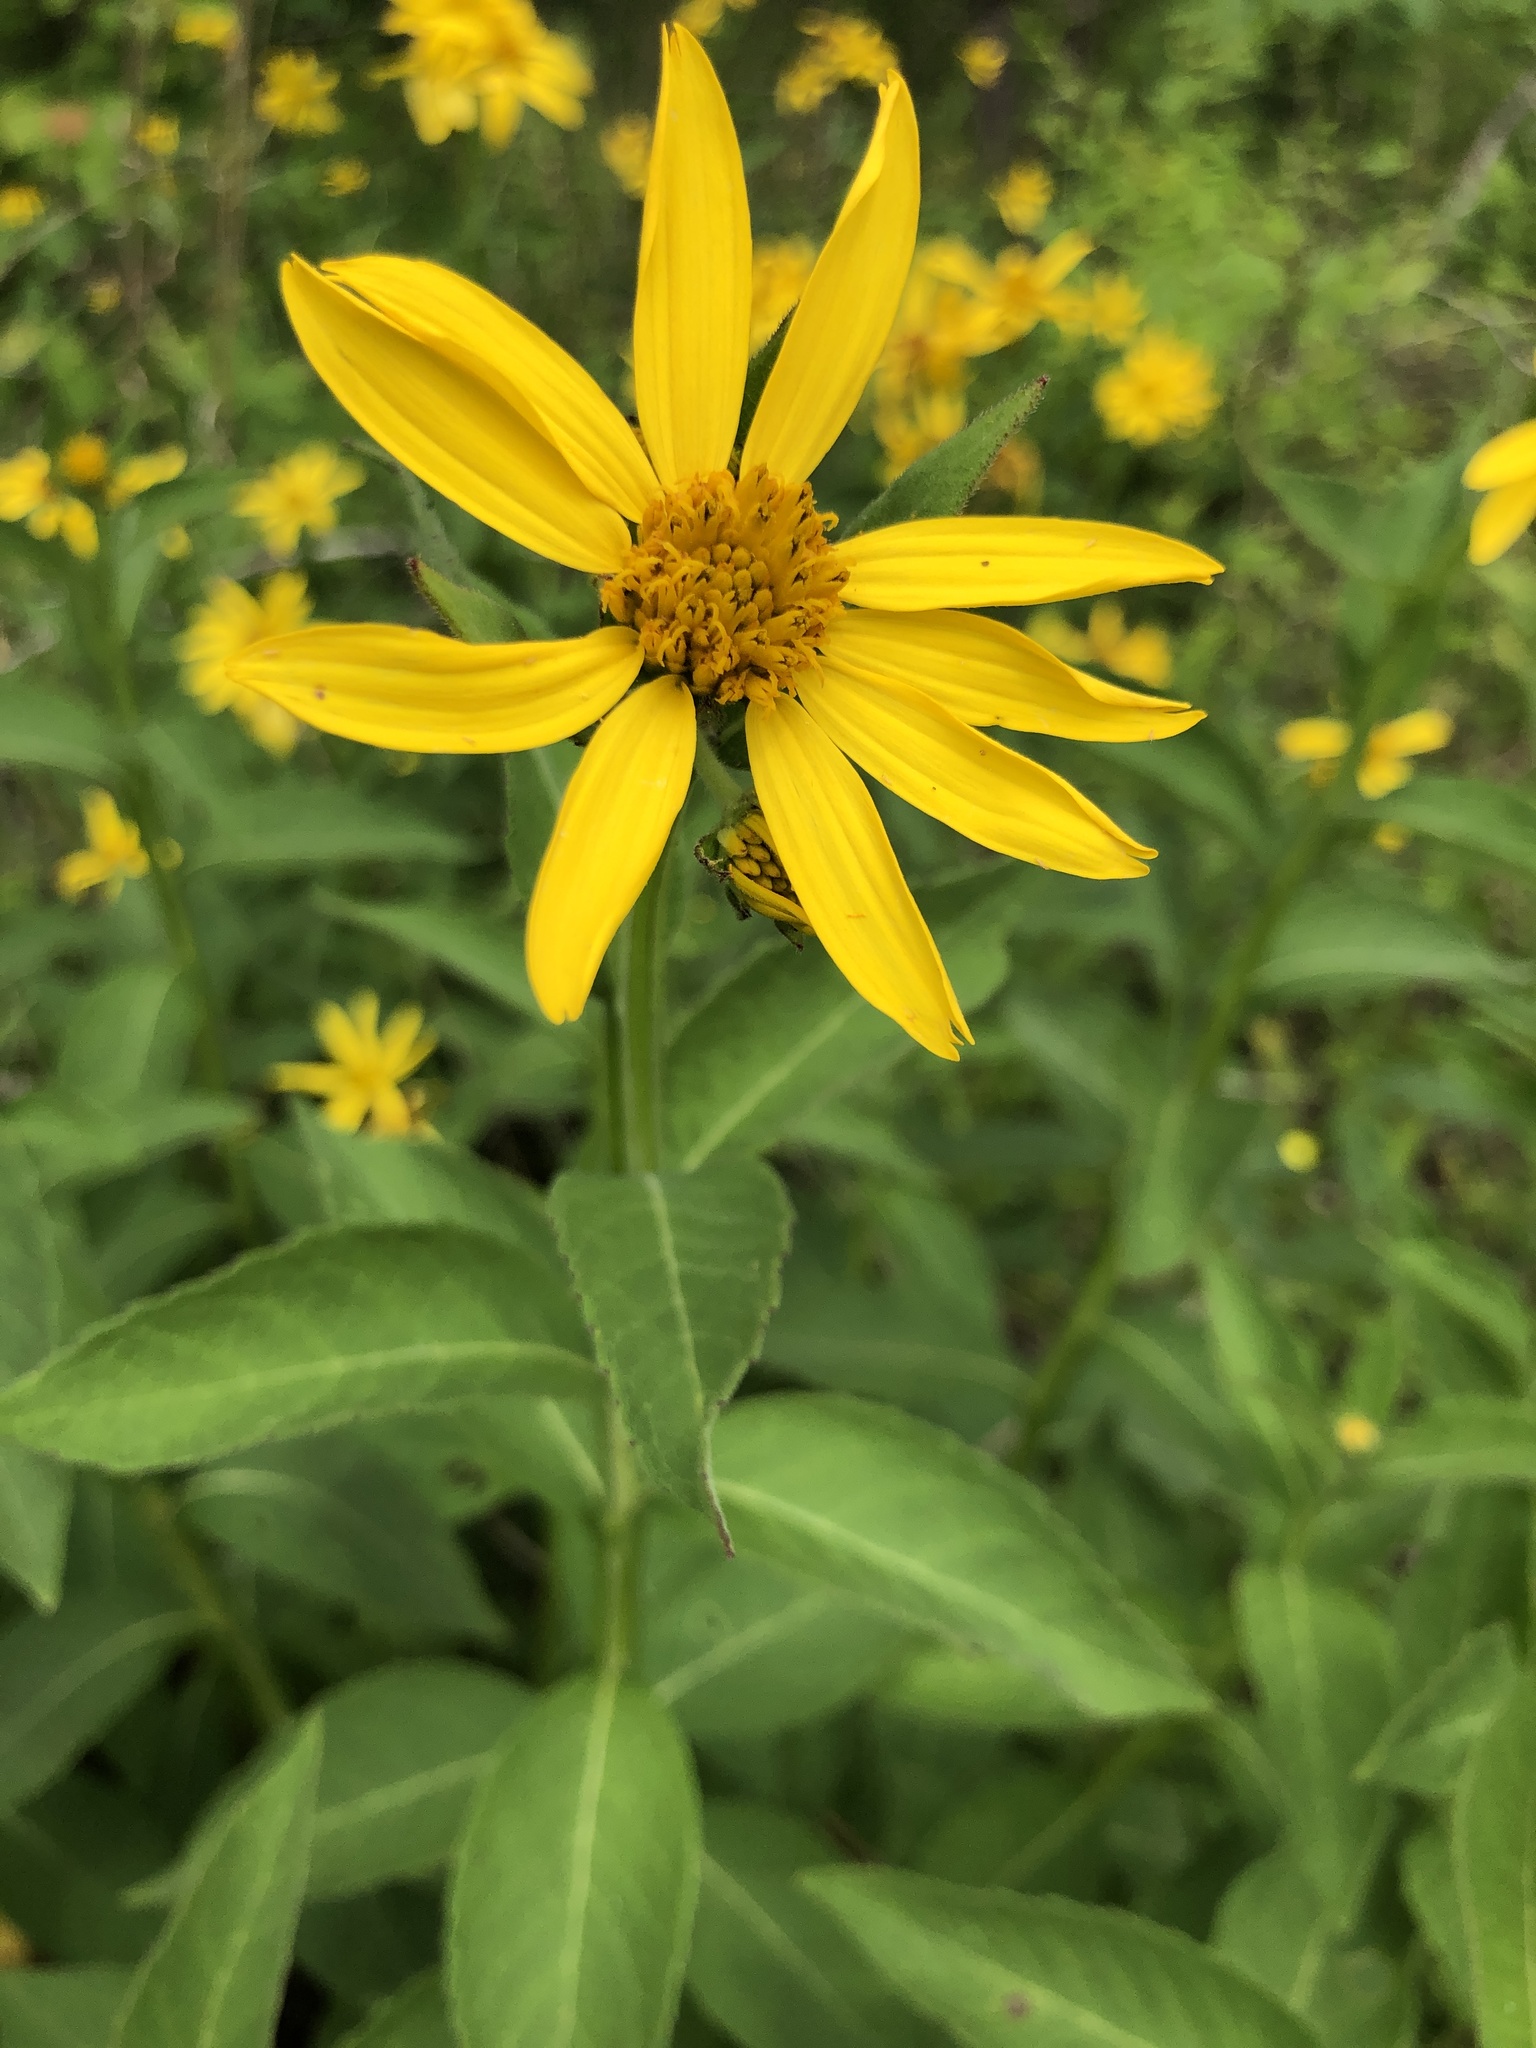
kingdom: Plantae
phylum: Tracheophyta
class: Magnoliopsida
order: Asterales
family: Asteraceae
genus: Verbesina
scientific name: Verbesina helianthoides
